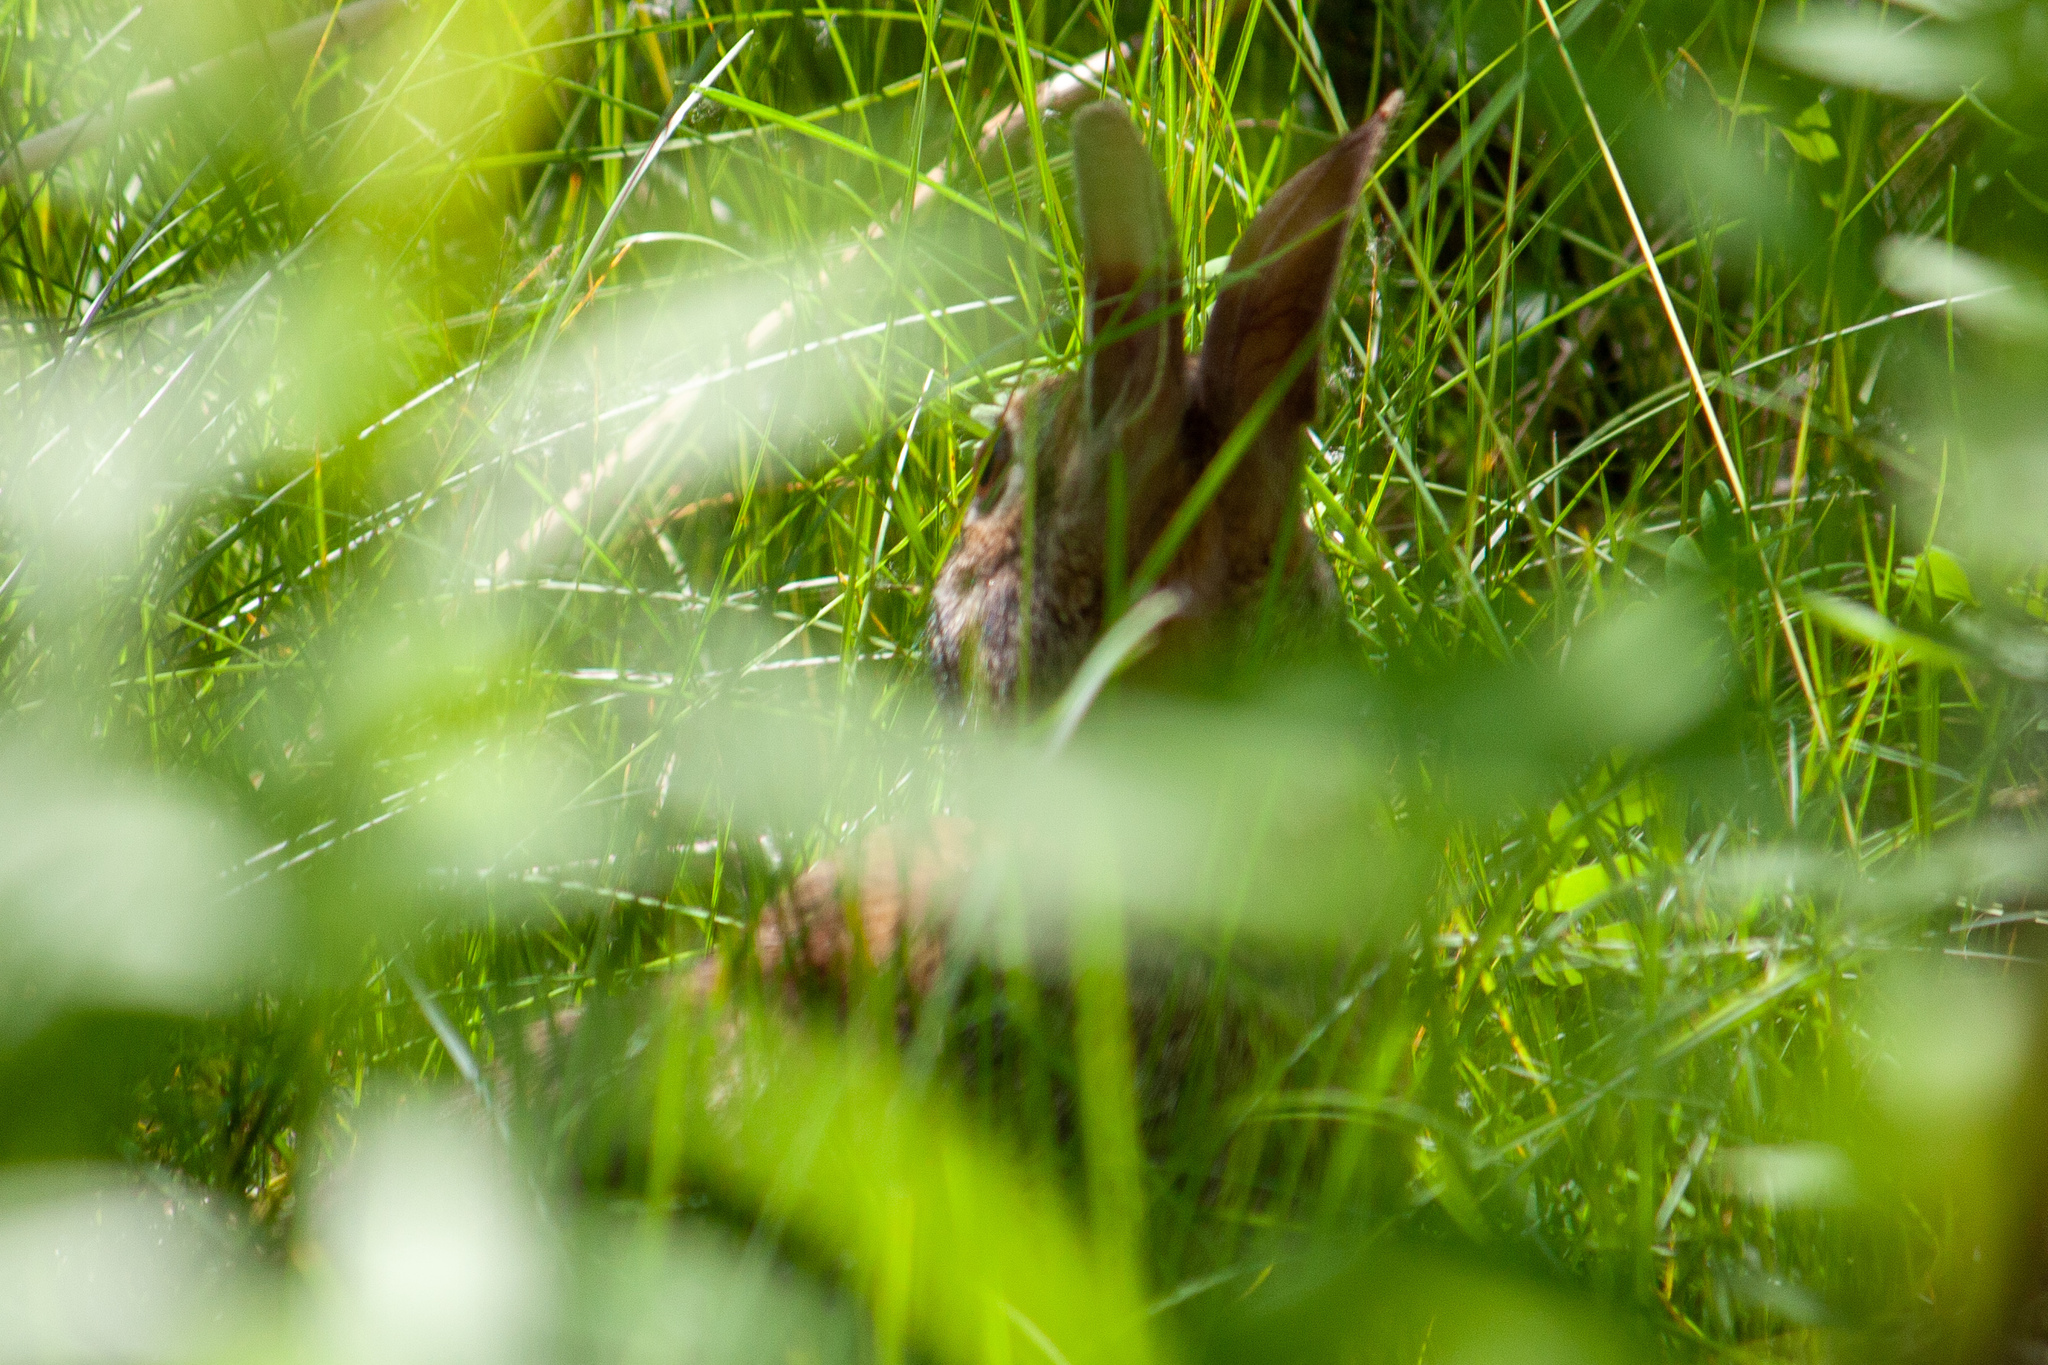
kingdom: Animalia
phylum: Chordata
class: Mammalia
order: Lagomorpha
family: Leporidae
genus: Sylvilagus
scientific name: Sylvilagus floridanus
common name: Eastern cottontail
